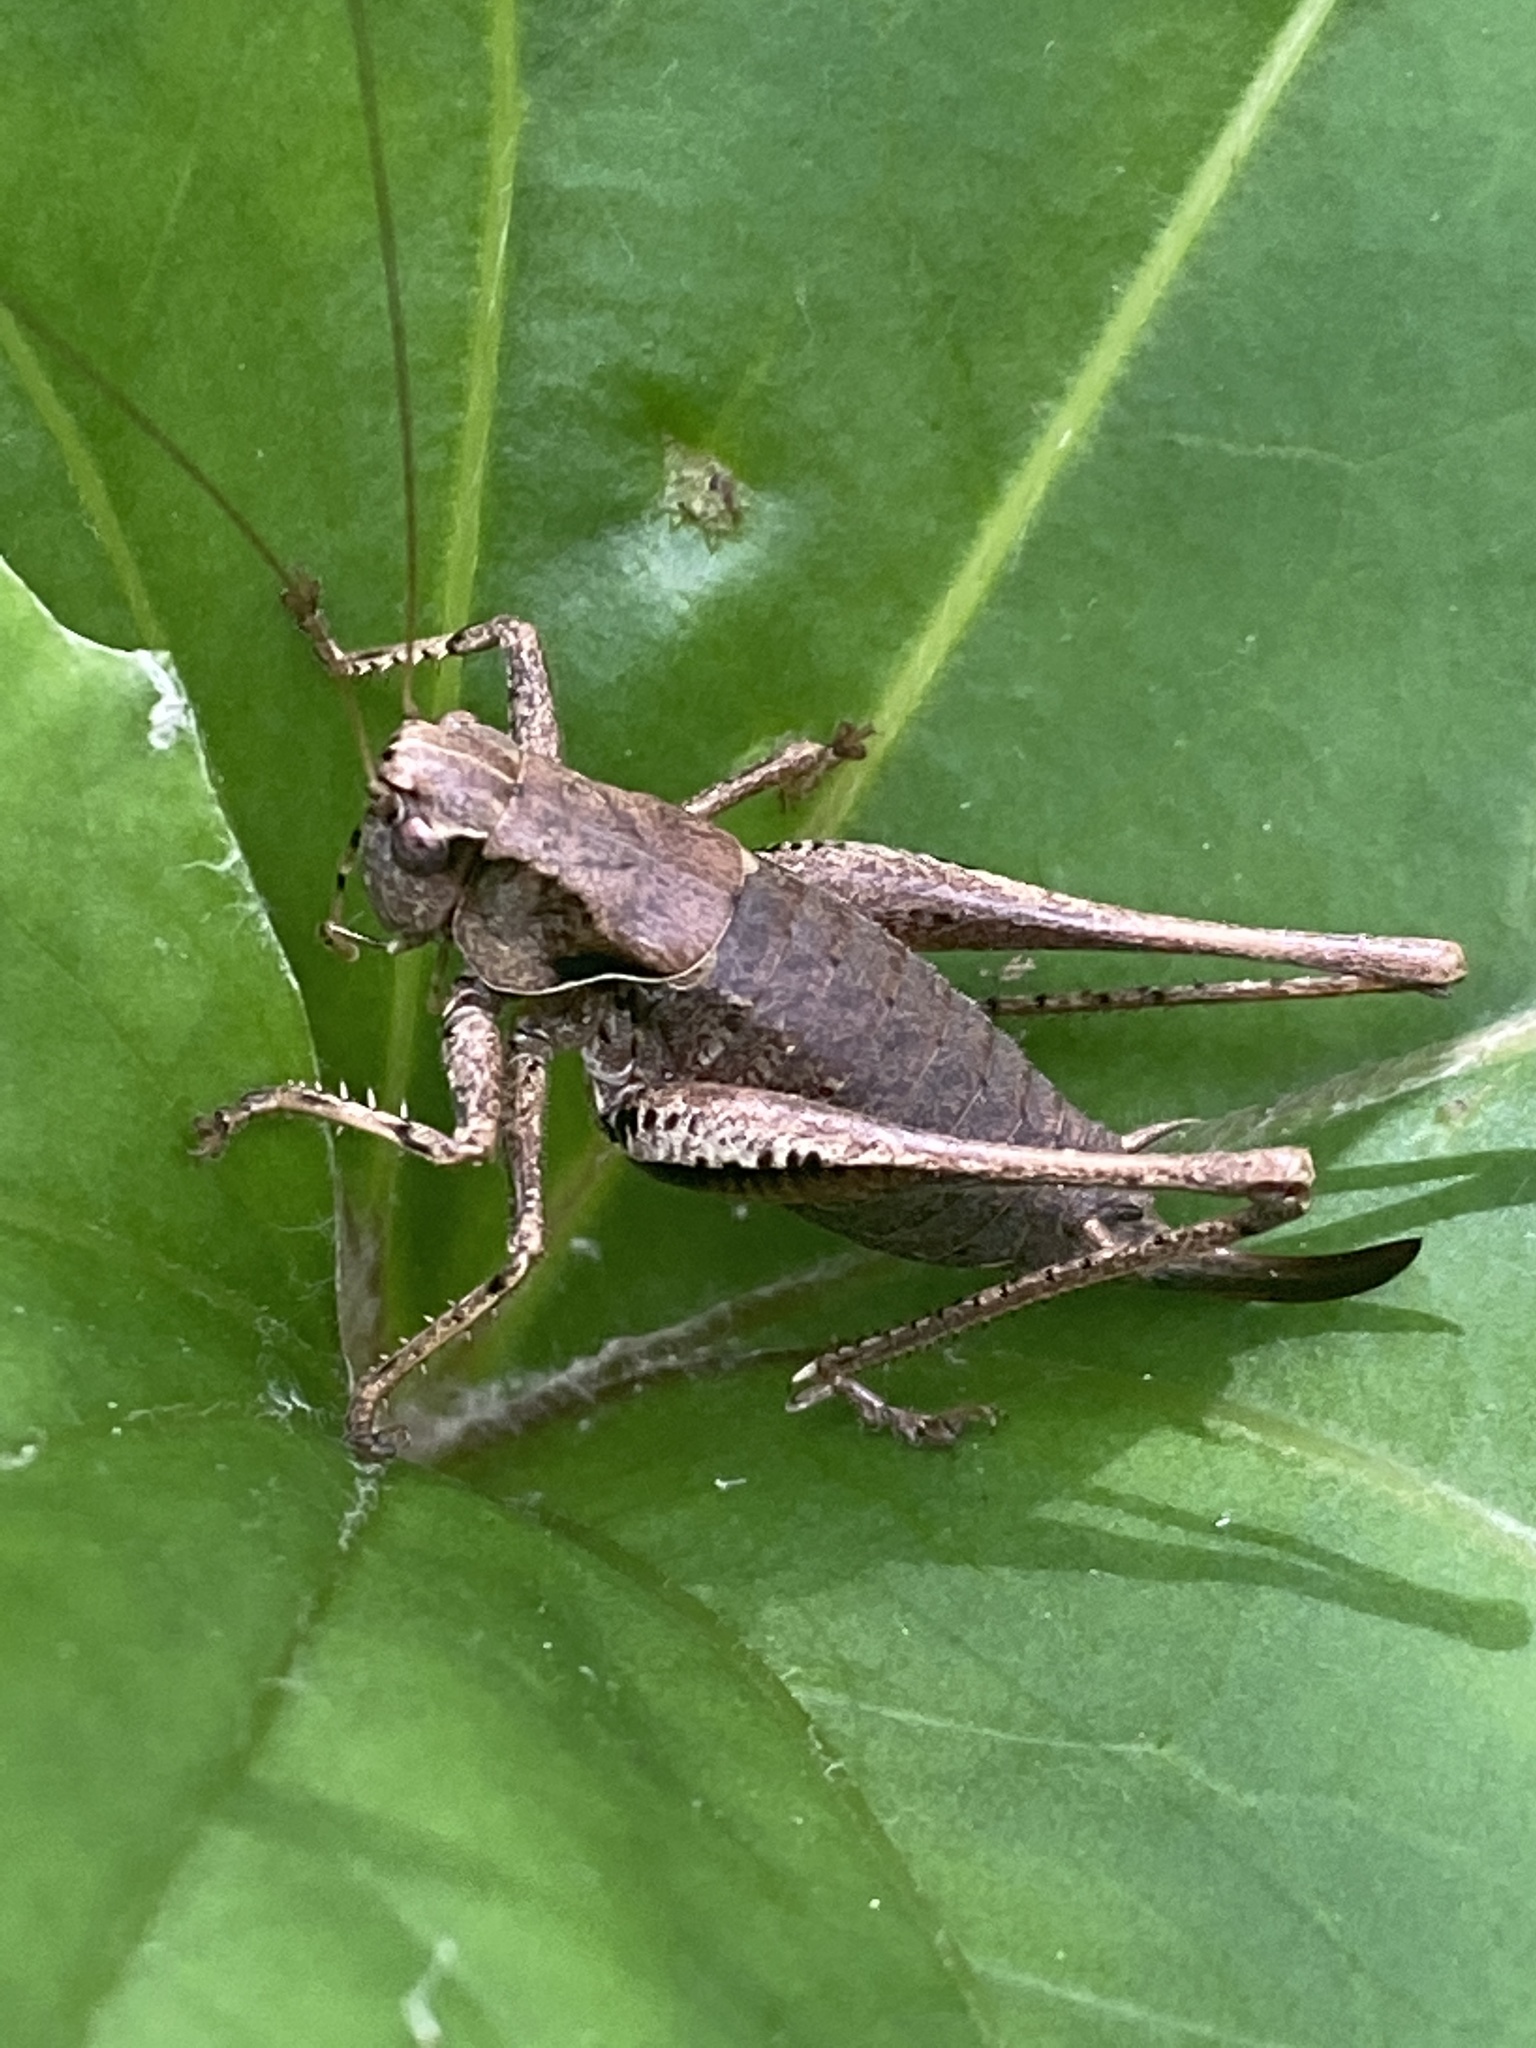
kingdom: Animalia
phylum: Arthropoda
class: Insecta
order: Orthoptera
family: Tettigoniidae
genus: Pholidoptera
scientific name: Pholidoptera griseoaptera
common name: Dark bush-cricket
